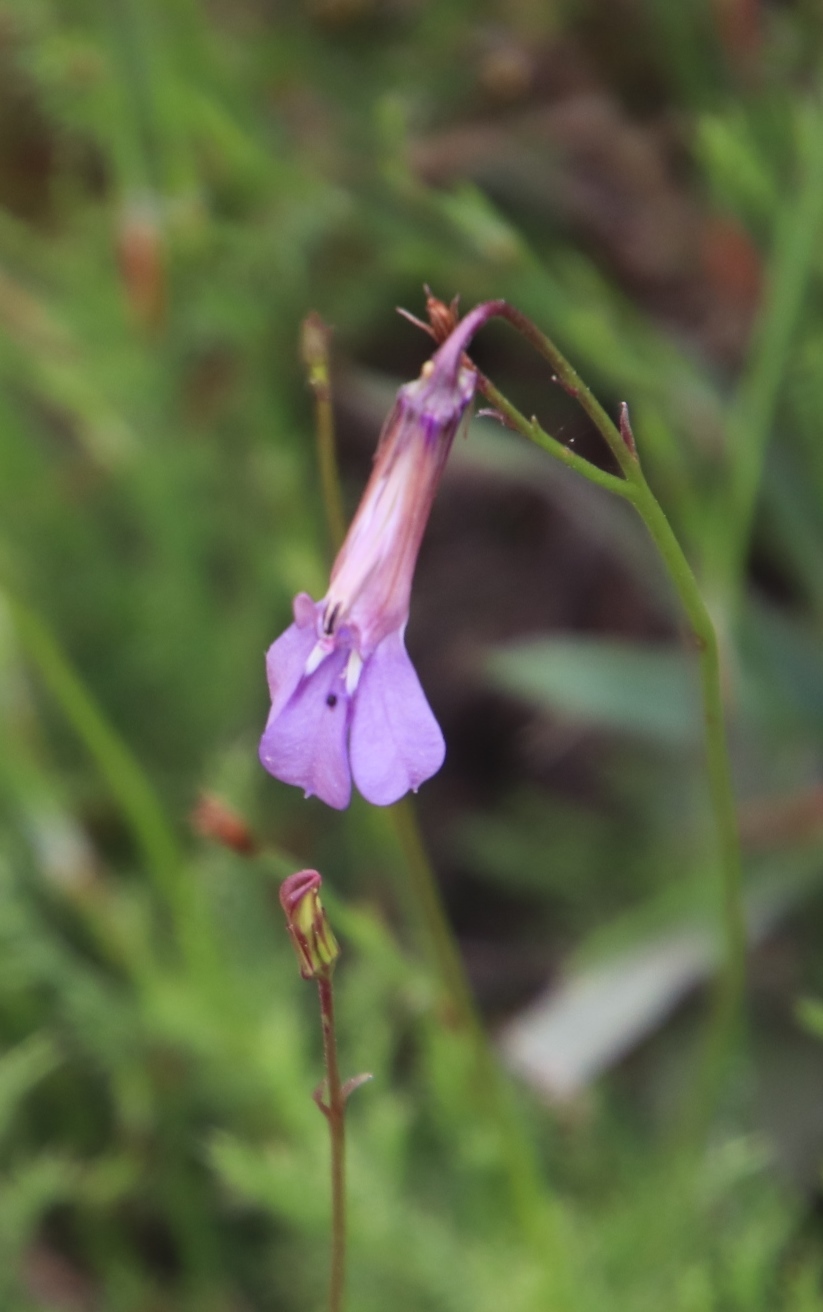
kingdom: Plantae
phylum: Tracheophyta
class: Magnoliopsida
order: Asterales
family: Campanulaceae
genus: Lobelia
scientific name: Lobelia coronopifolia
